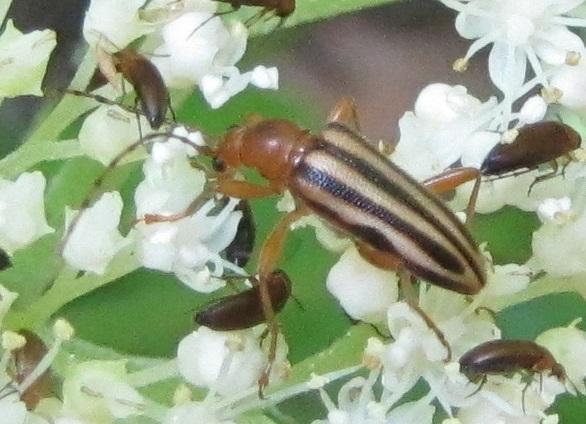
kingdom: Animalia
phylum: Arthropoda
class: Insecta
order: Coleoptera
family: Cerambycidae
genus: Metacmaeops
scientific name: Metacmaeops vittata
